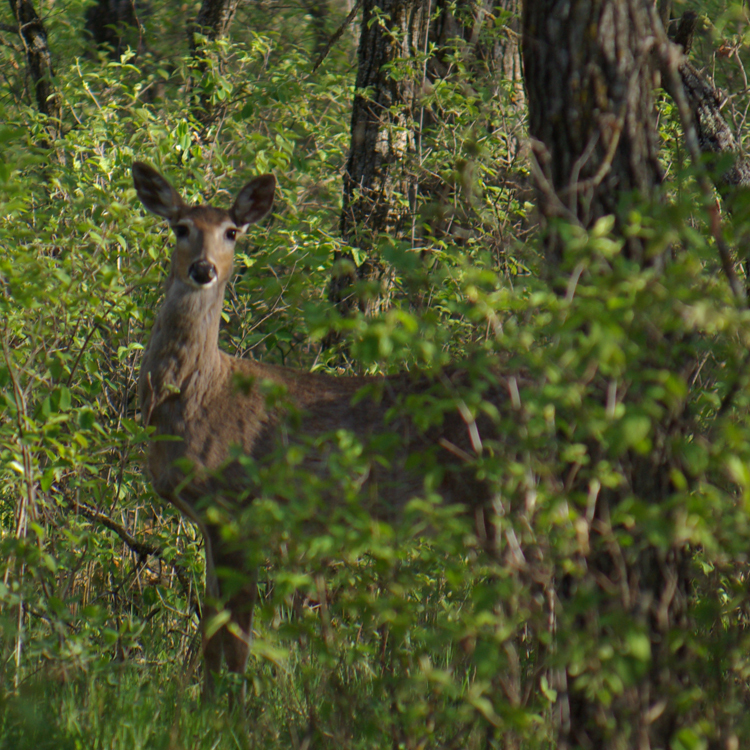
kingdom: Animalia
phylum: Chordata
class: Mammalia
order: Artiodactyla
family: Cervidae
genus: Odocoileus
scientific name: Odocoileus virginianus
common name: White-tailed deer
